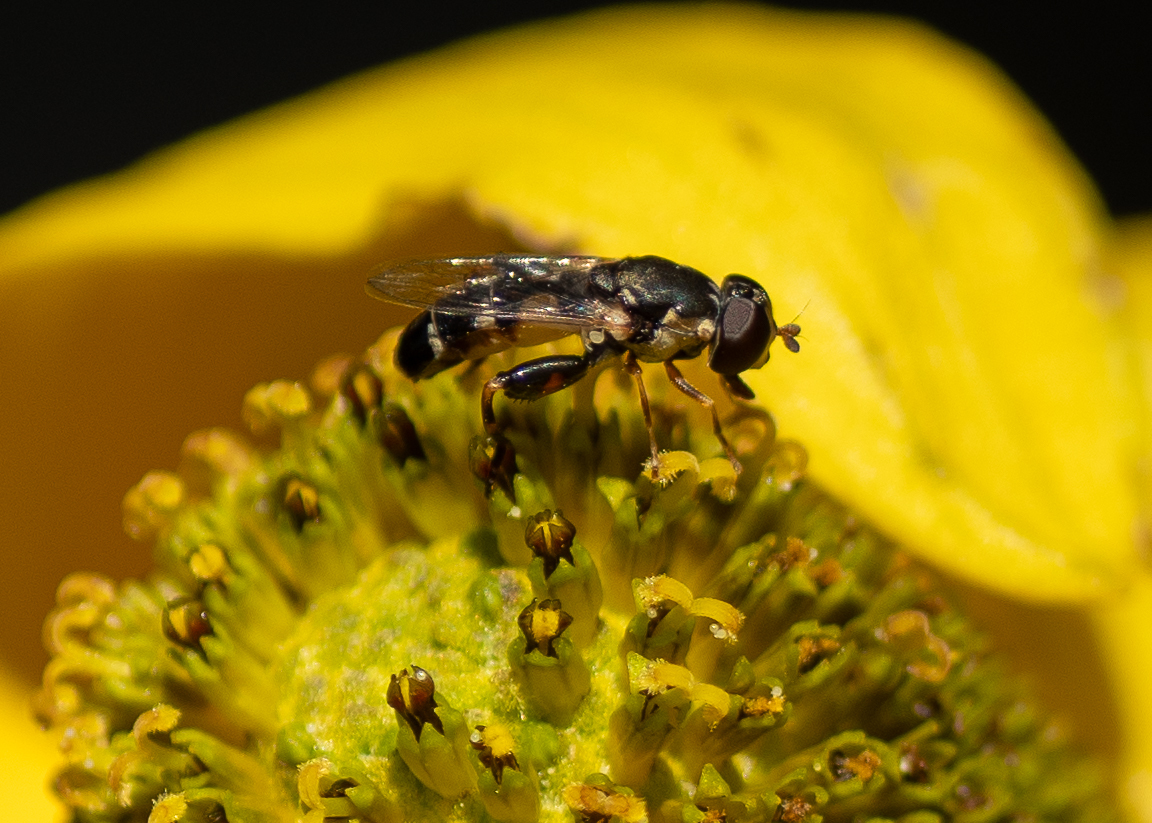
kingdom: Animalia
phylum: Arthropoda
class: Insecta
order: Diptera
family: Syrphidae
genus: Syritta
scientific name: Syritta pipiens
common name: Hover fly
